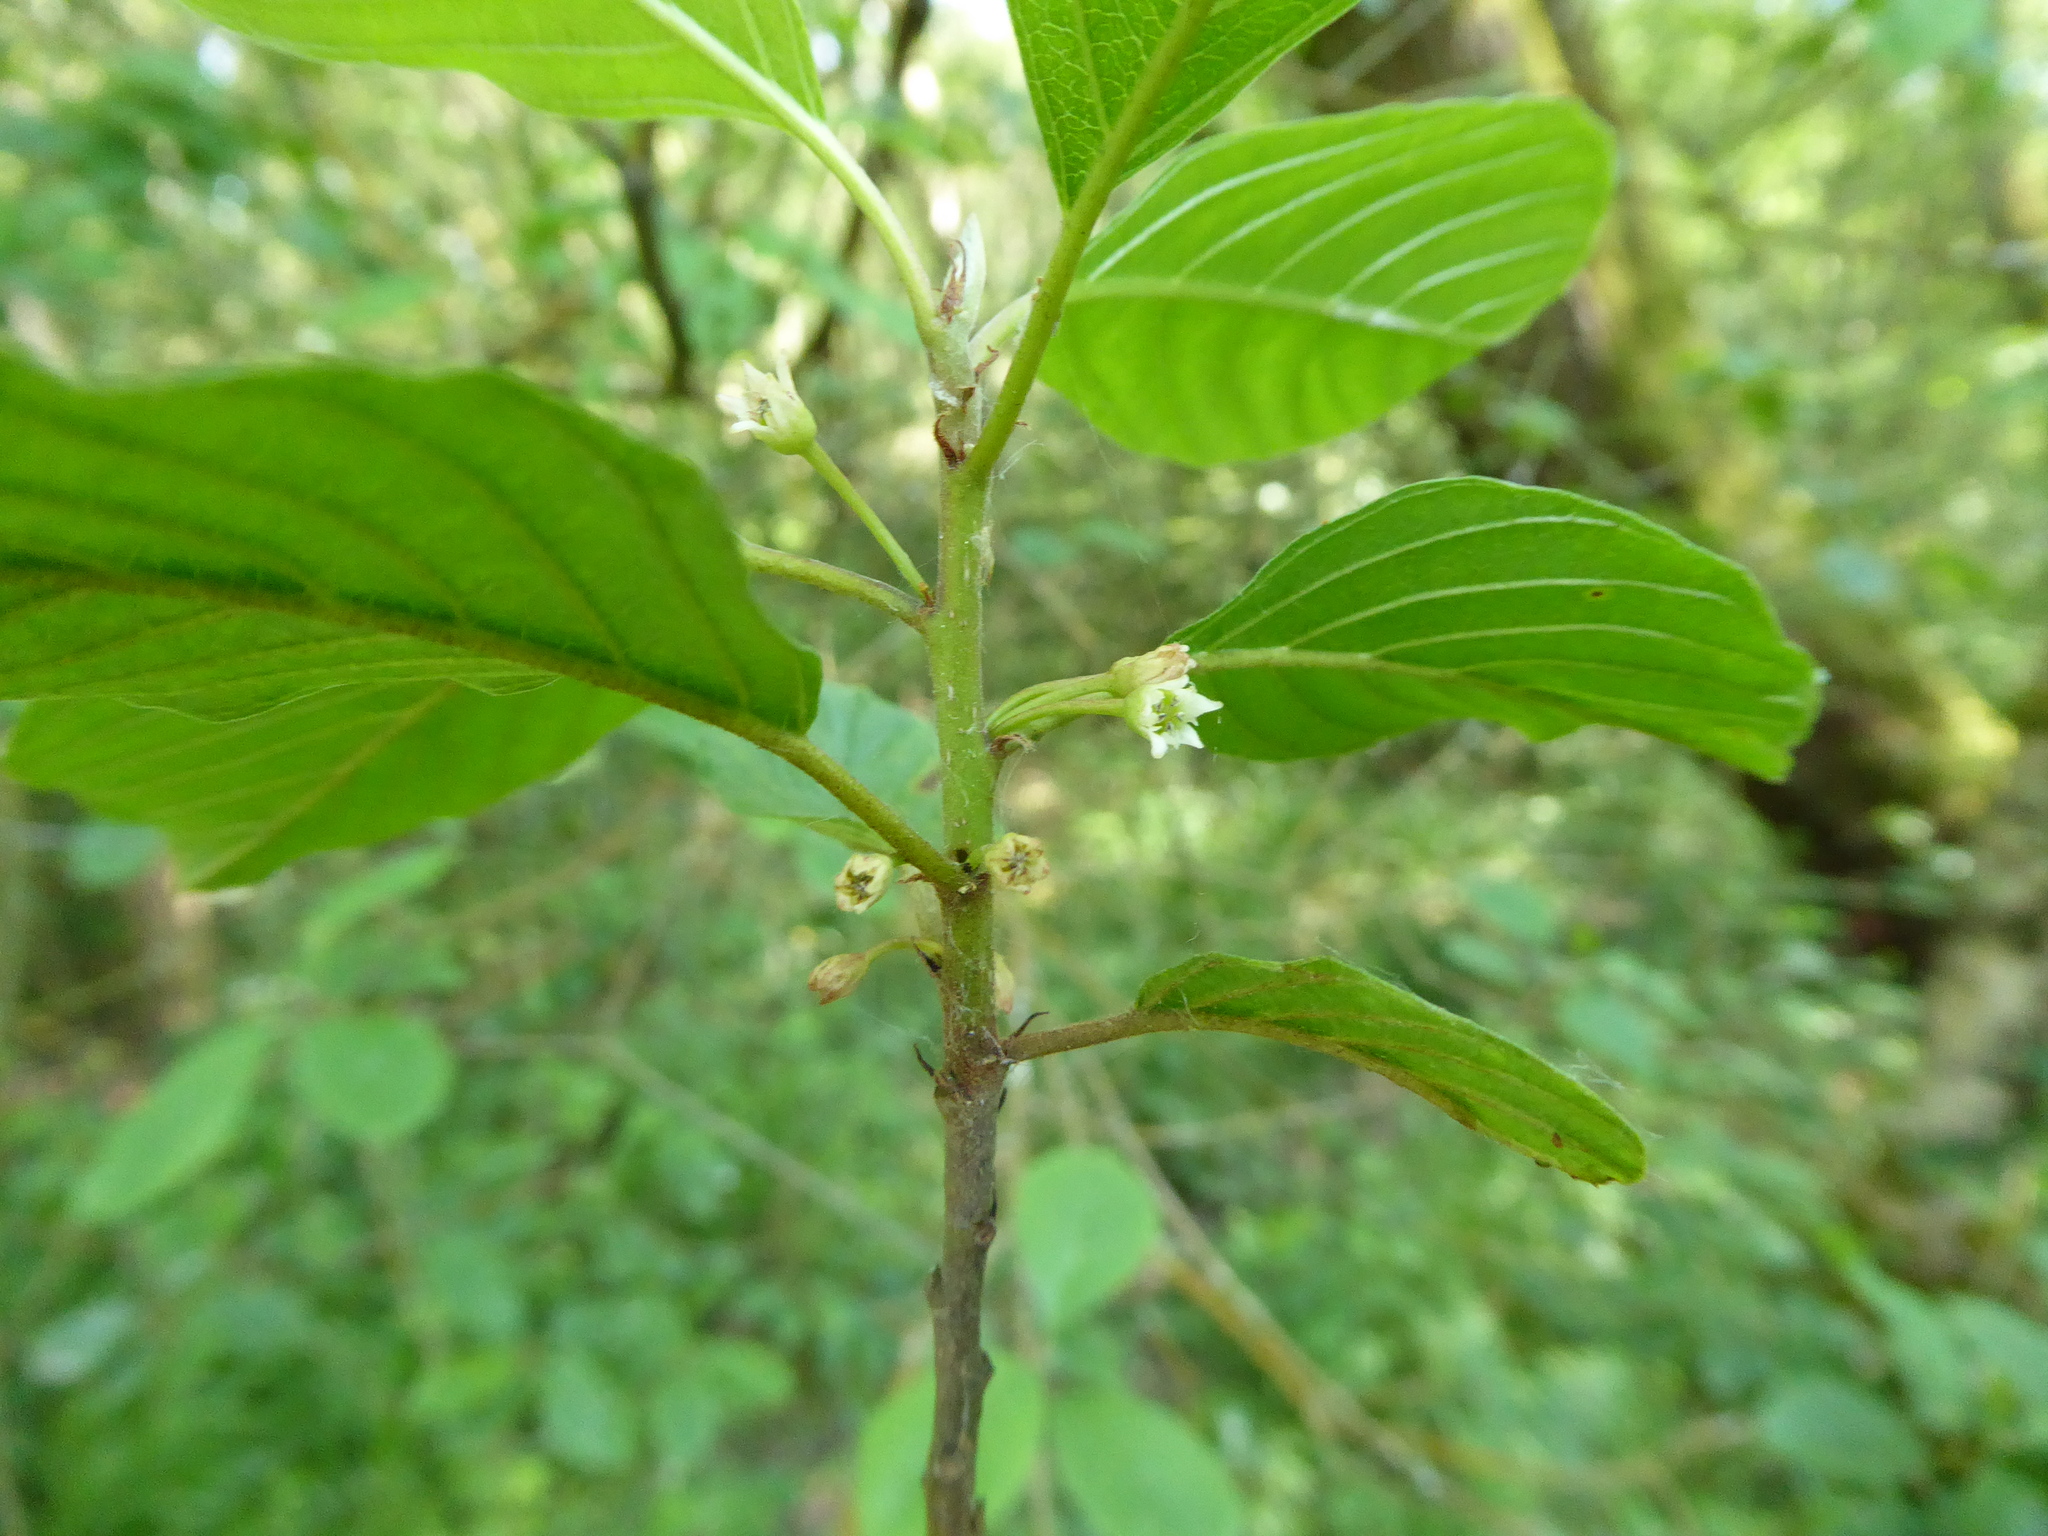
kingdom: Plantae
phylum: Tracheophyta
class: Magnoliopsida
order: Rosales
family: Rhamnaceae
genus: Frangula
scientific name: Frangula alnus
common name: Alder buckthorn
